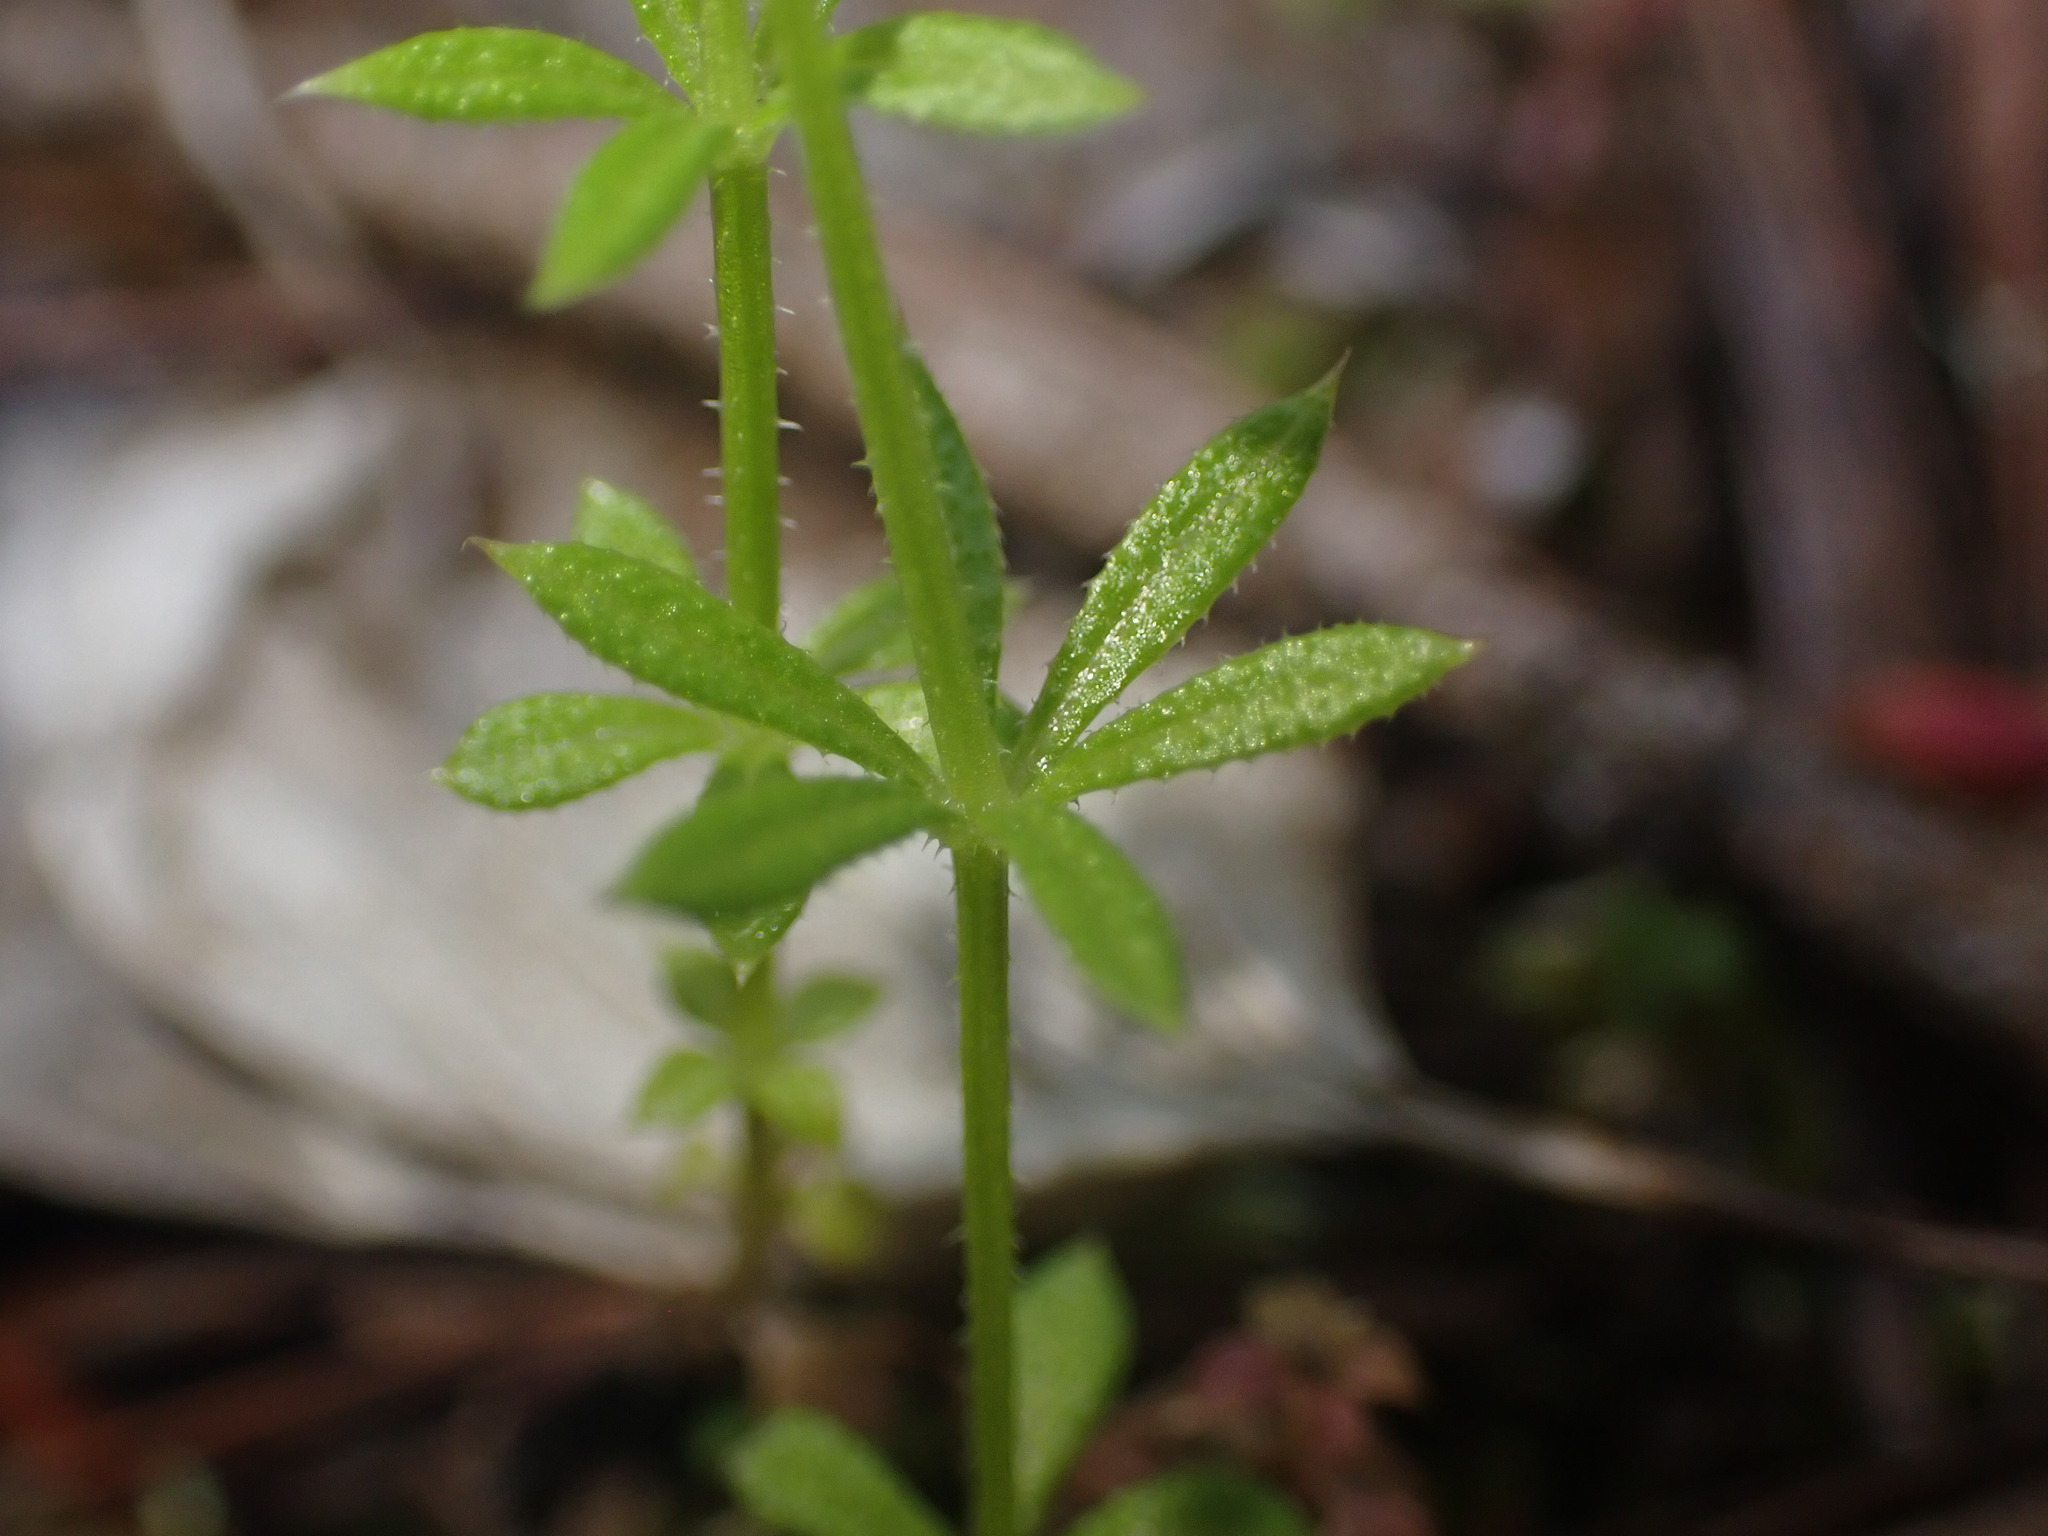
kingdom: Plantae
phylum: Tracheophyta
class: Magnoliopsida
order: Gentianales
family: Rubiaceae
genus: Galium
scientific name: Galium aparine
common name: Cleavers
